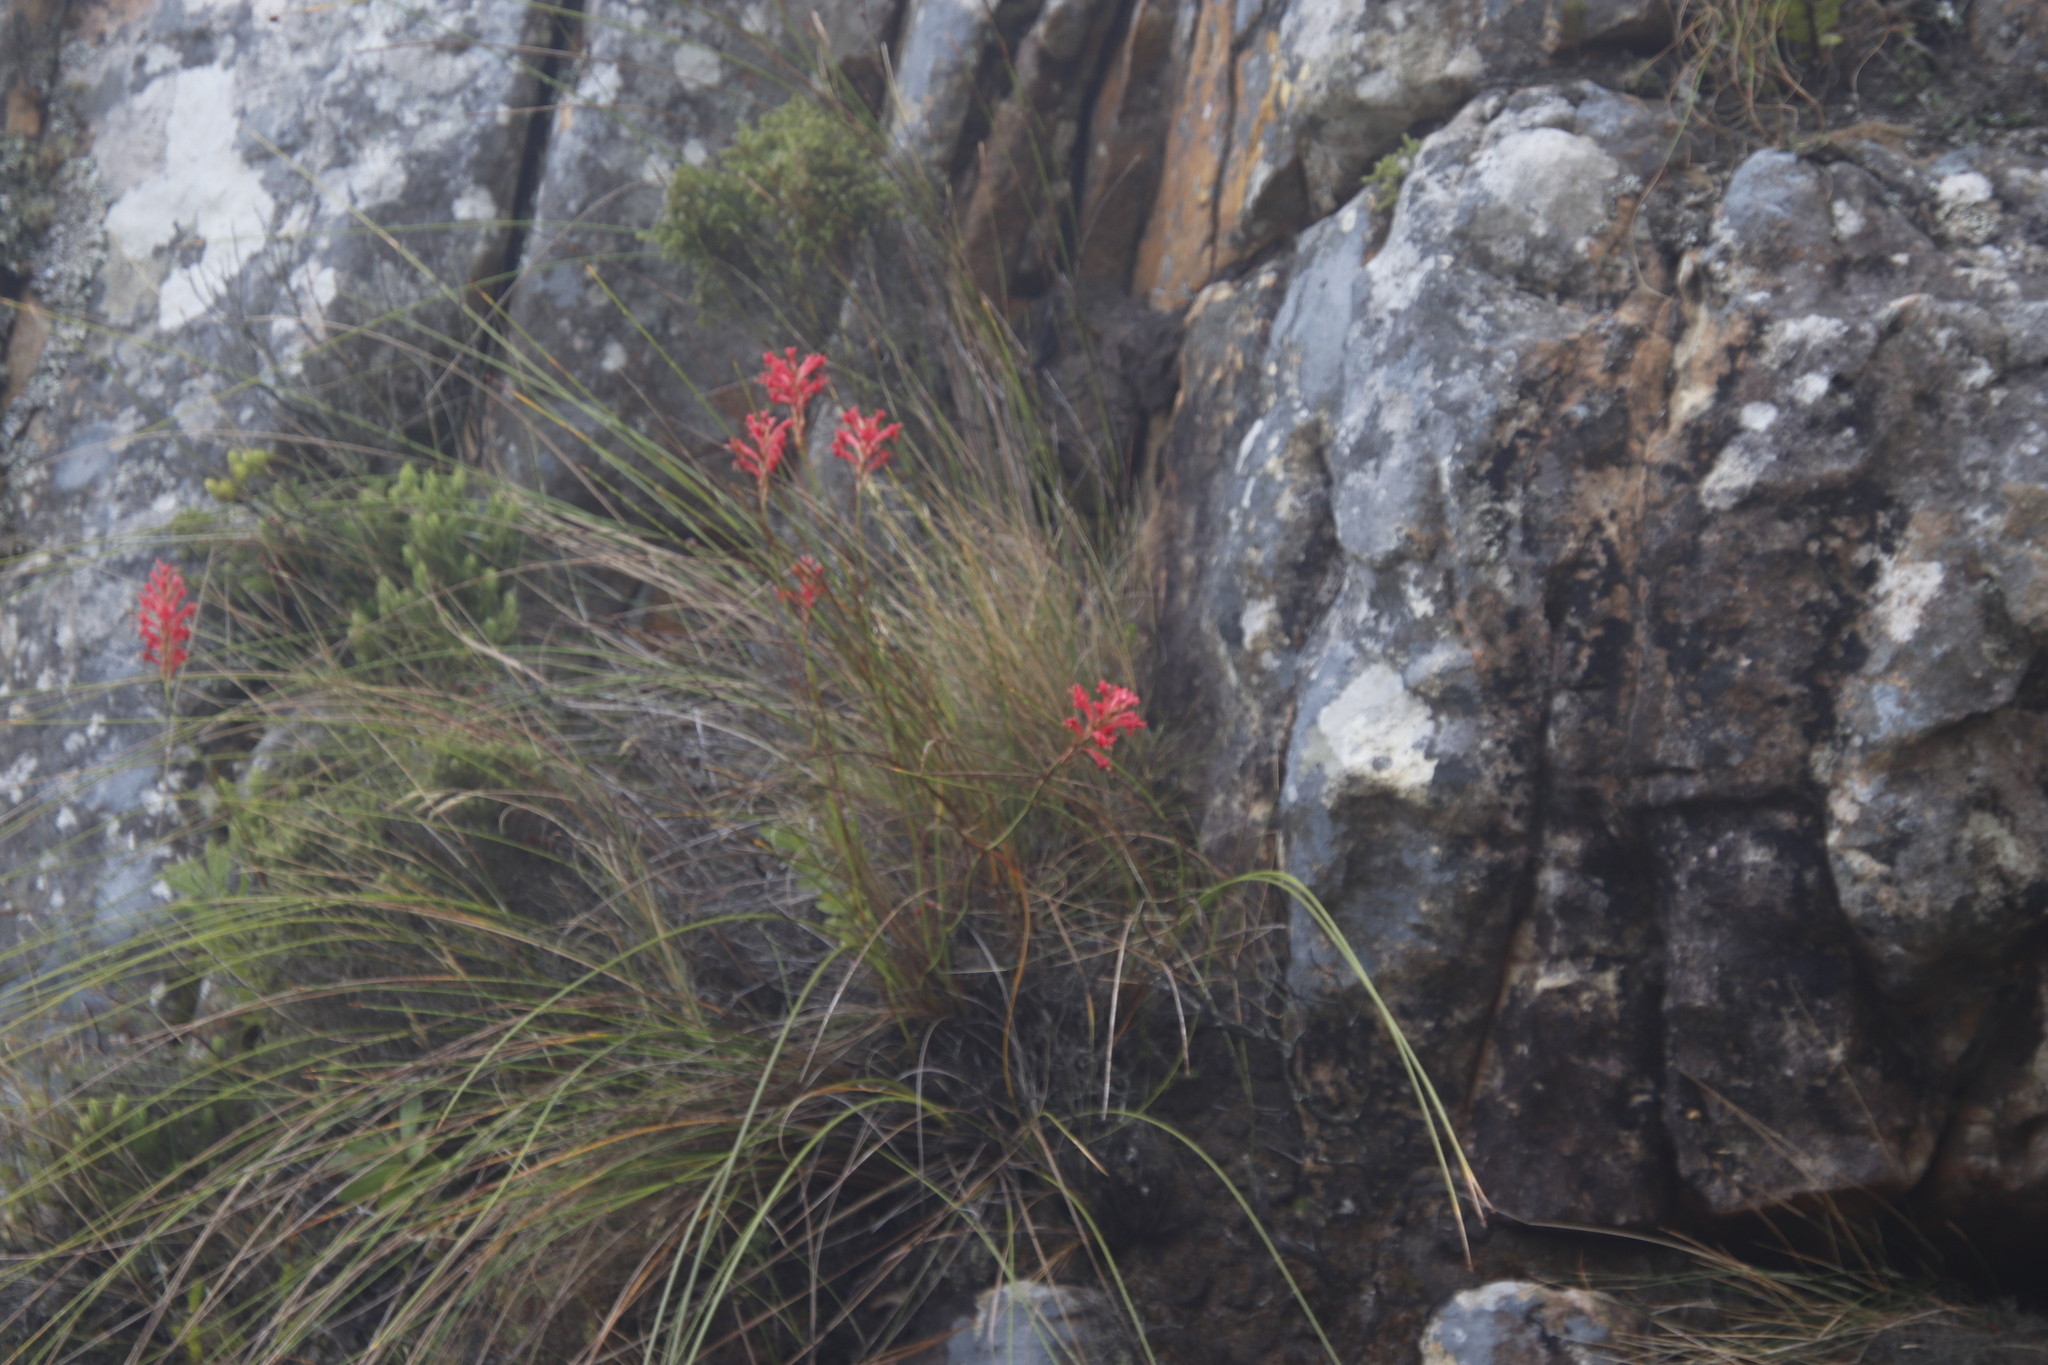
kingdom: Plantae
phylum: Tracheophyta
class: Liliopsida
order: Asparagales
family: Iridaceae
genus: Tritoniopsis
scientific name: Tritoniopsis triticea
